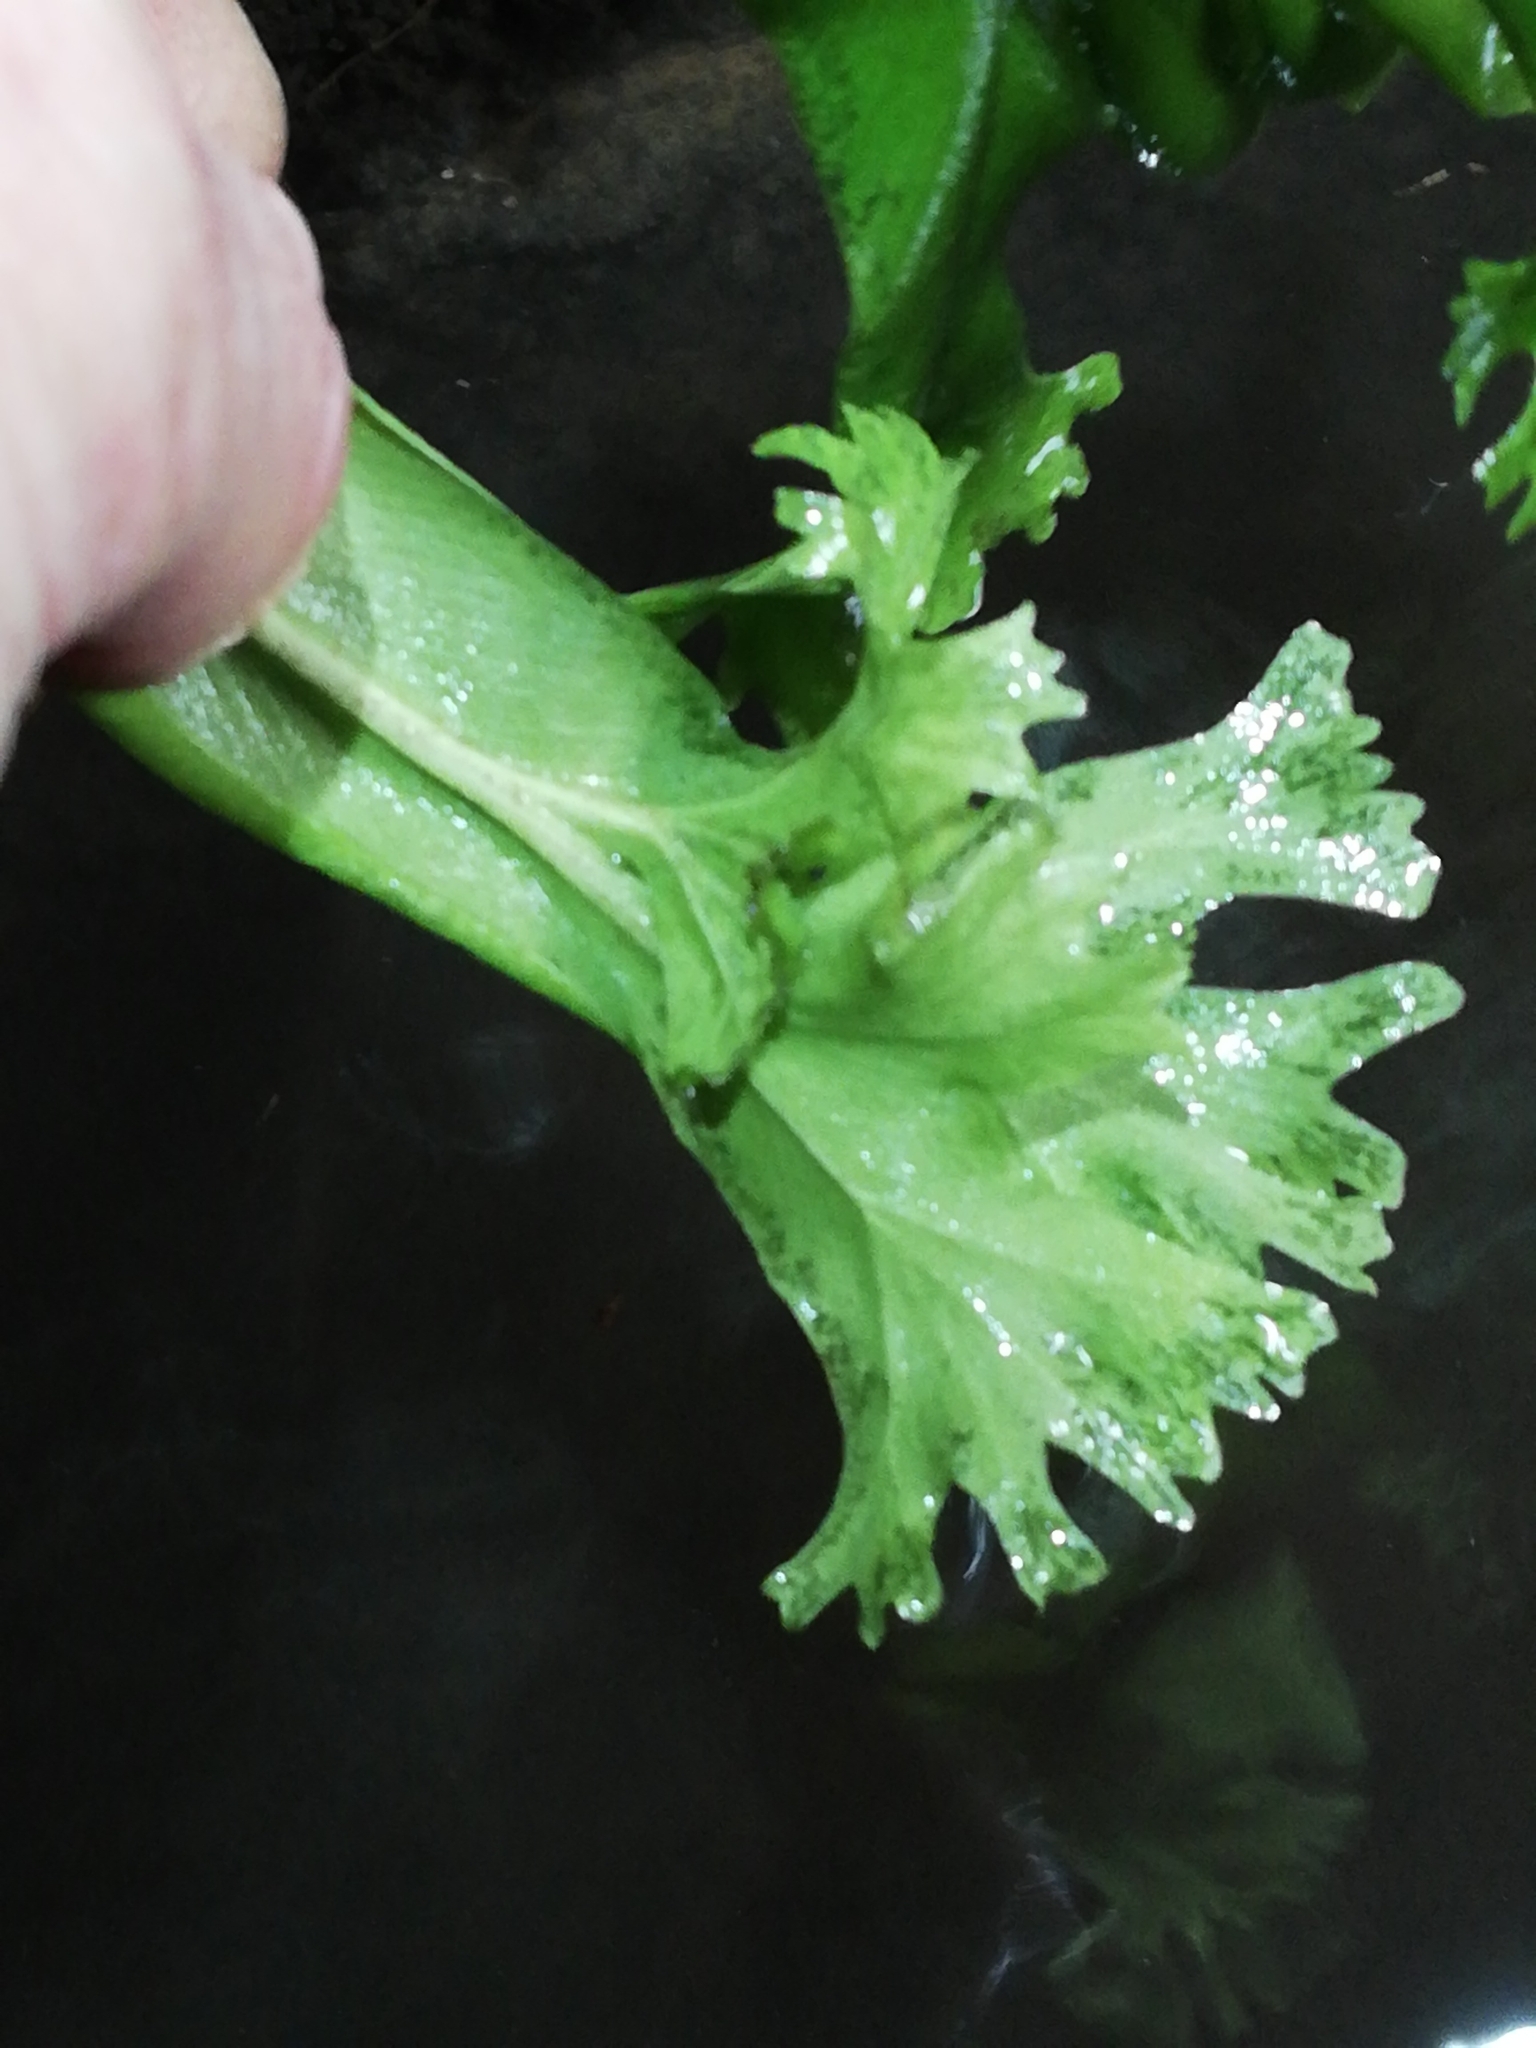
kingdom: Plantae
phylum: Tracheophyta
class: Polypodiopsida
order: Polypodiales
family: Aspleniaceae
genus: Asplenium
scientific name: Asplenium scolopendrium
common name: Hart's-tongue fern
